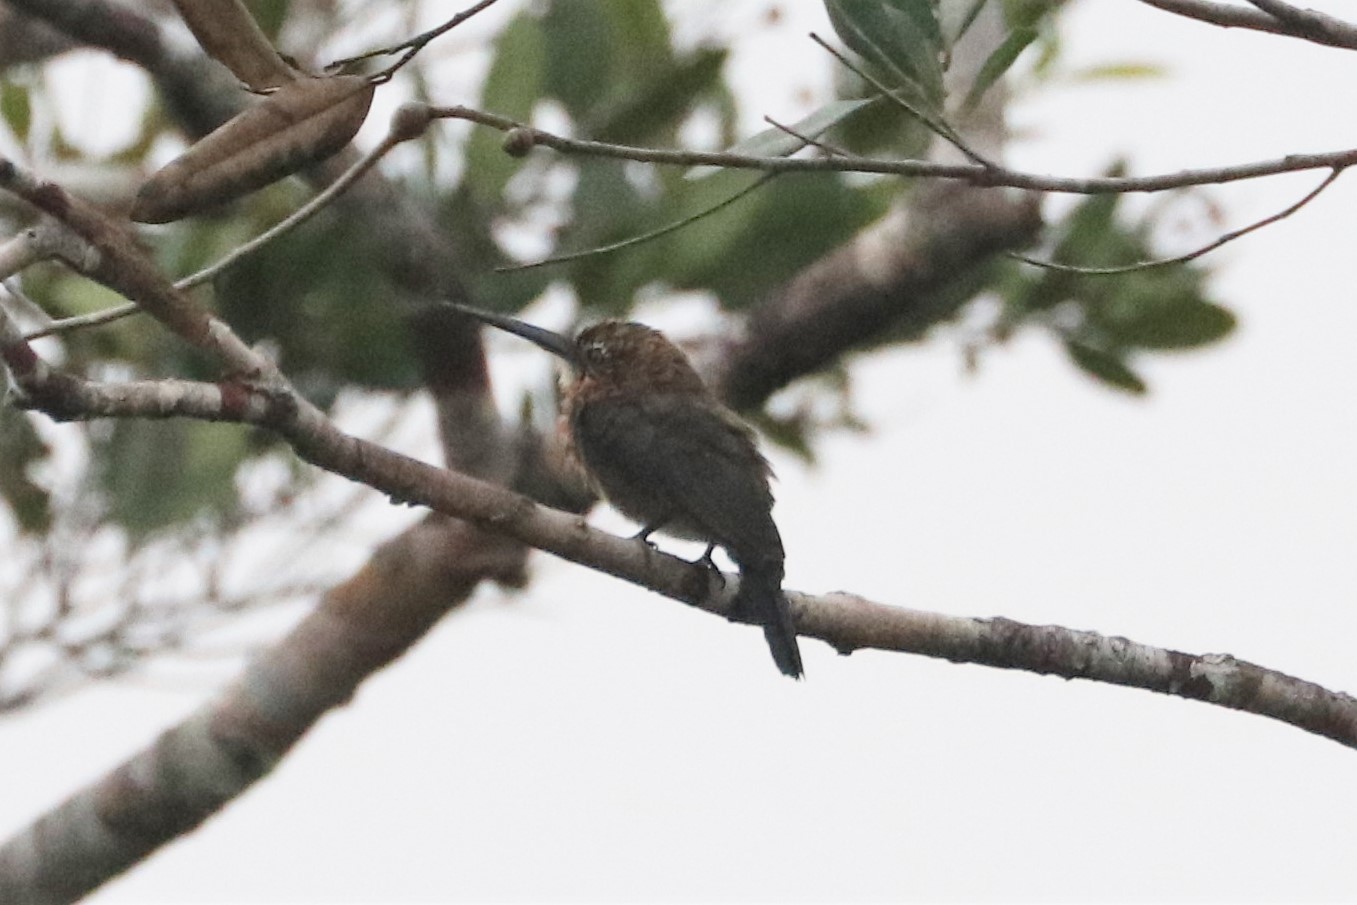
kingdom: Animalia
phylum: Chordata
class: Aves
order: Piciformes
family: Galbulidae
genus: Brachygalba
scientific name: Brachygalba lugubris
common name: Brown jacamar
